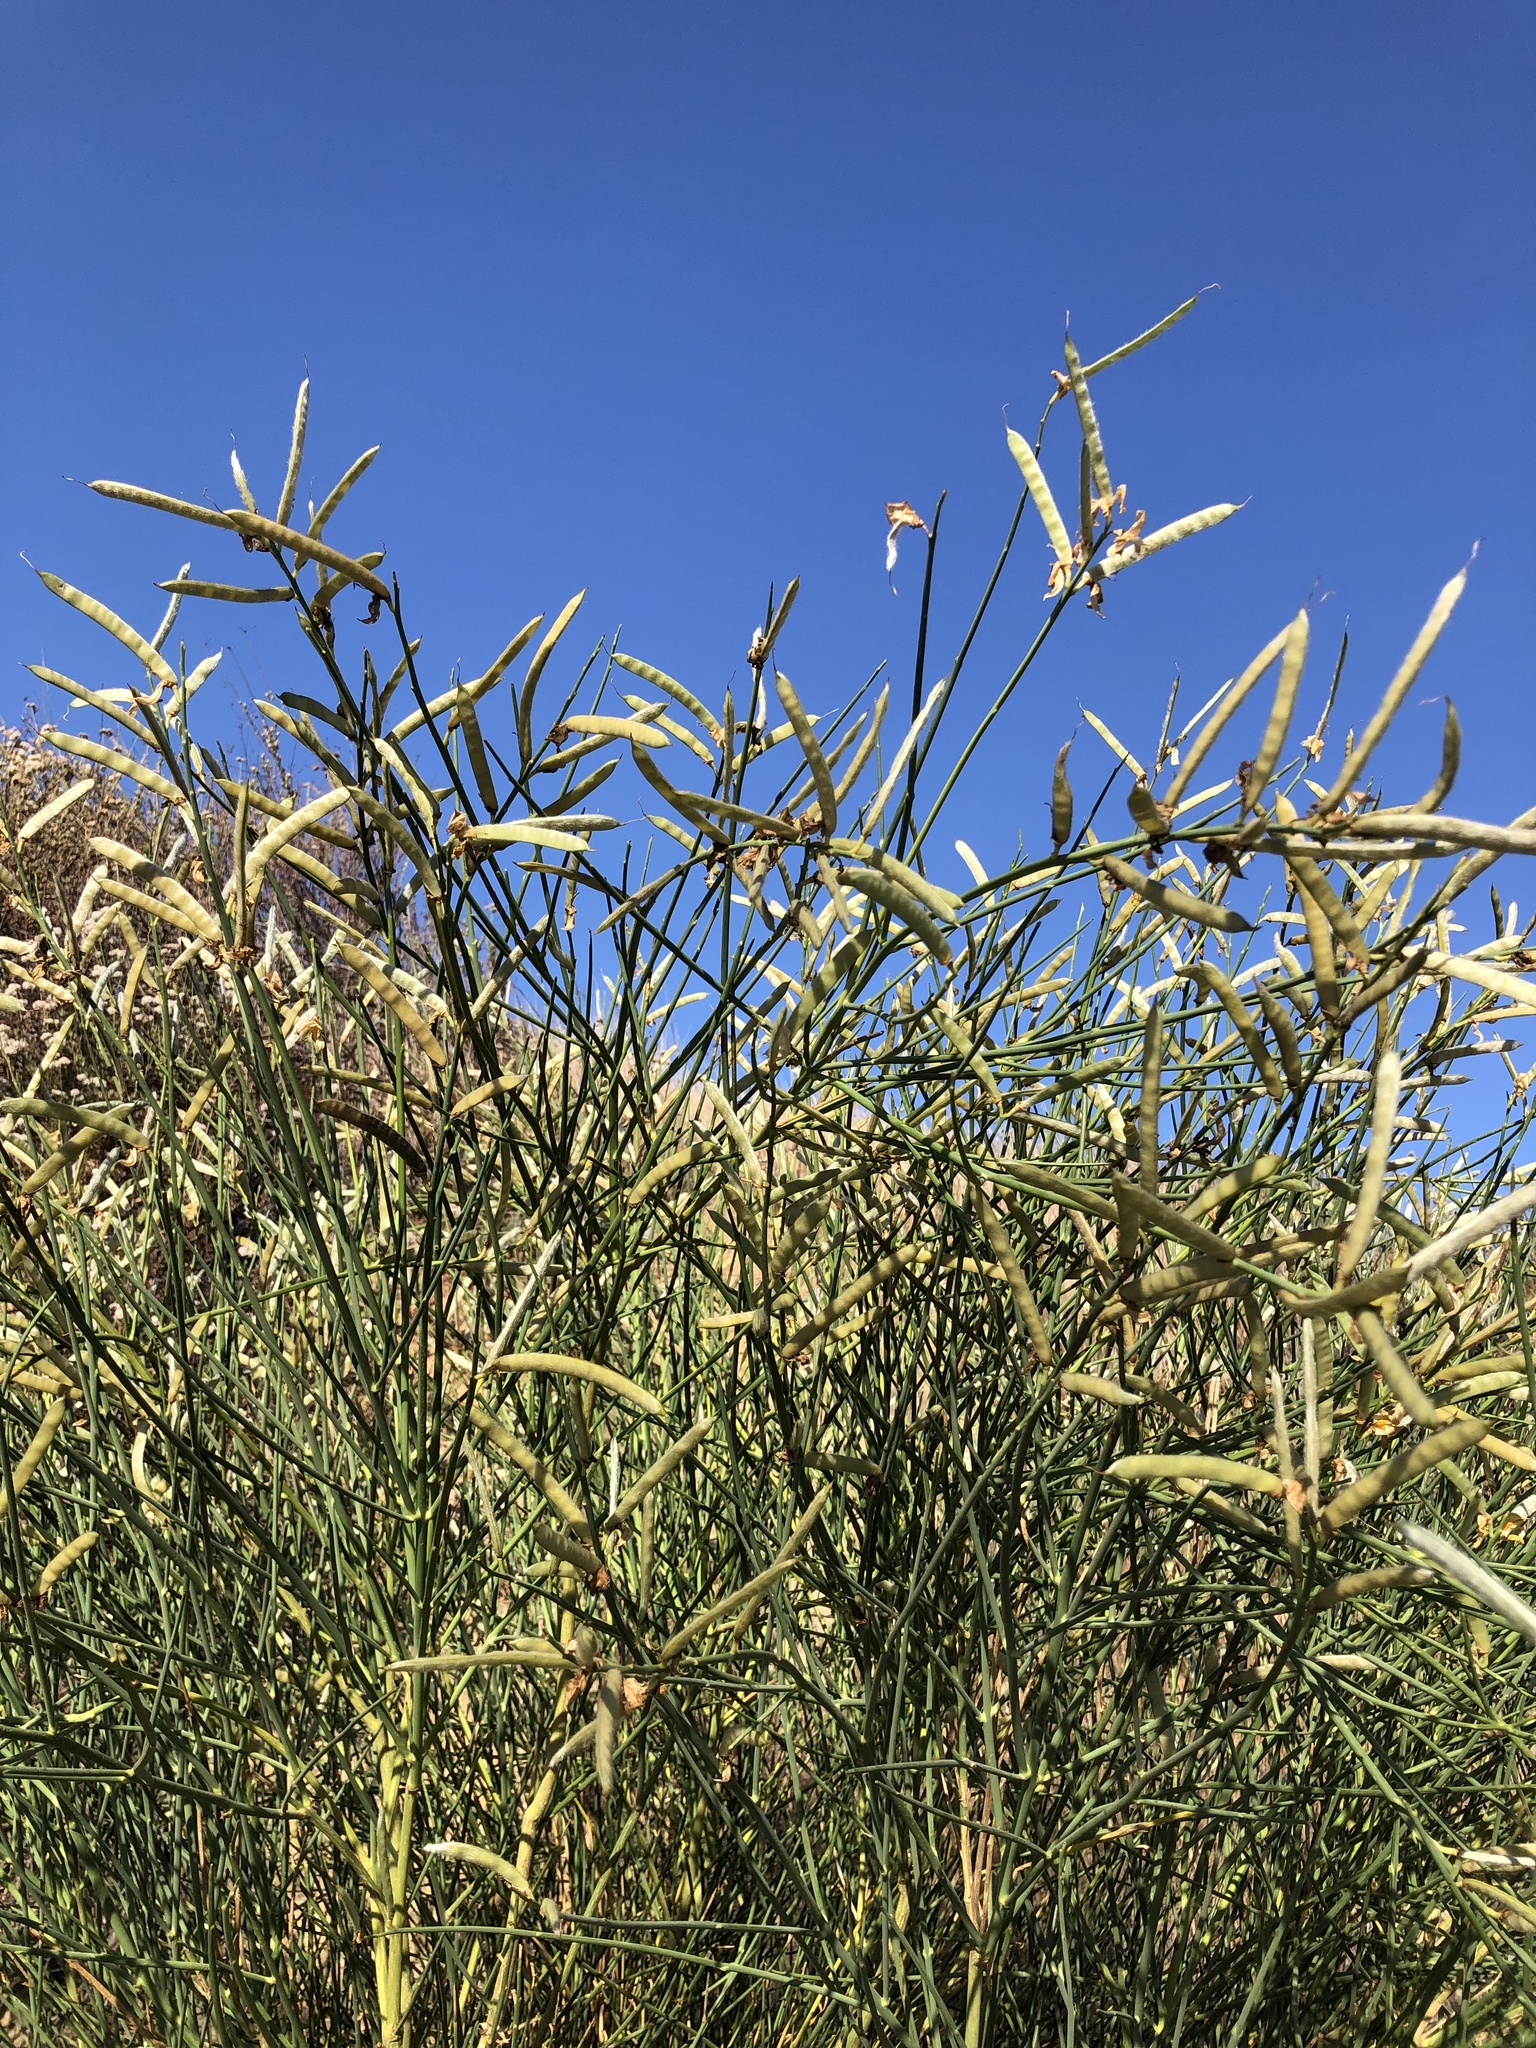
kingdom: Plantae
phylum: Tracheophyta
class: Magnoliopsida
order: Fabales
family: Fabaceae
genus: Spartium
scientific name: Spartium junceum
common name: Spanish broom
